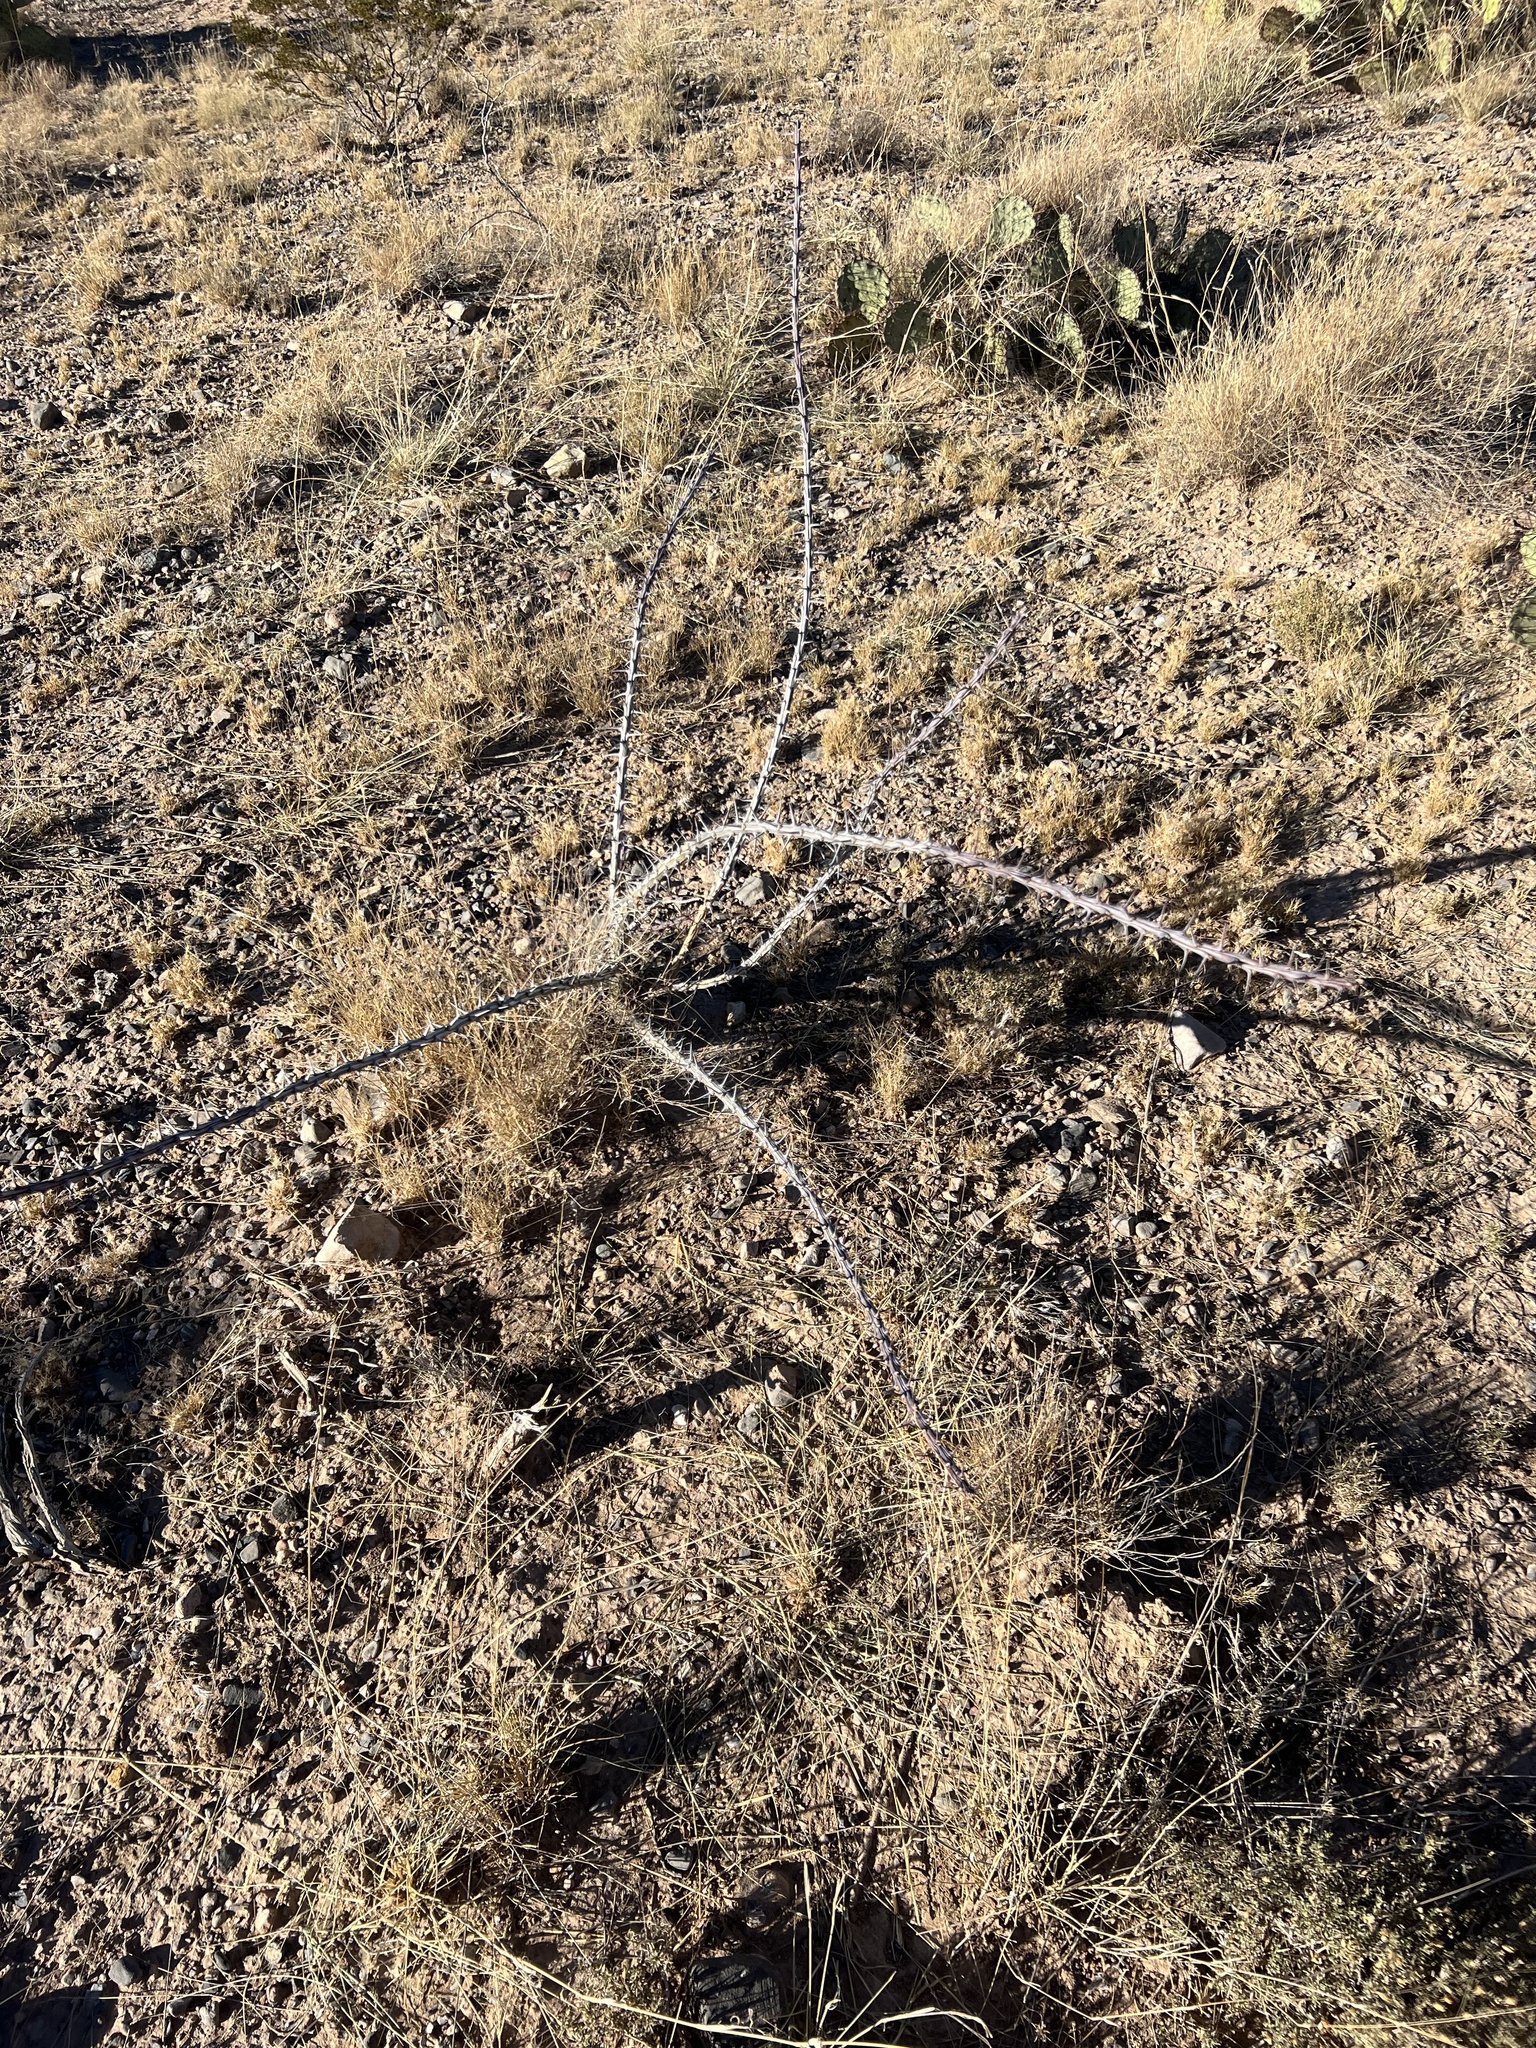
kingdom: Plantae
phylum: Tracheophyta
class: Magnoliopsida
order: Ericales
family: Fouquieriaceae
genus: Fouquieria
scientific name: Fouquieria splendens
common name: Vine-cactus
